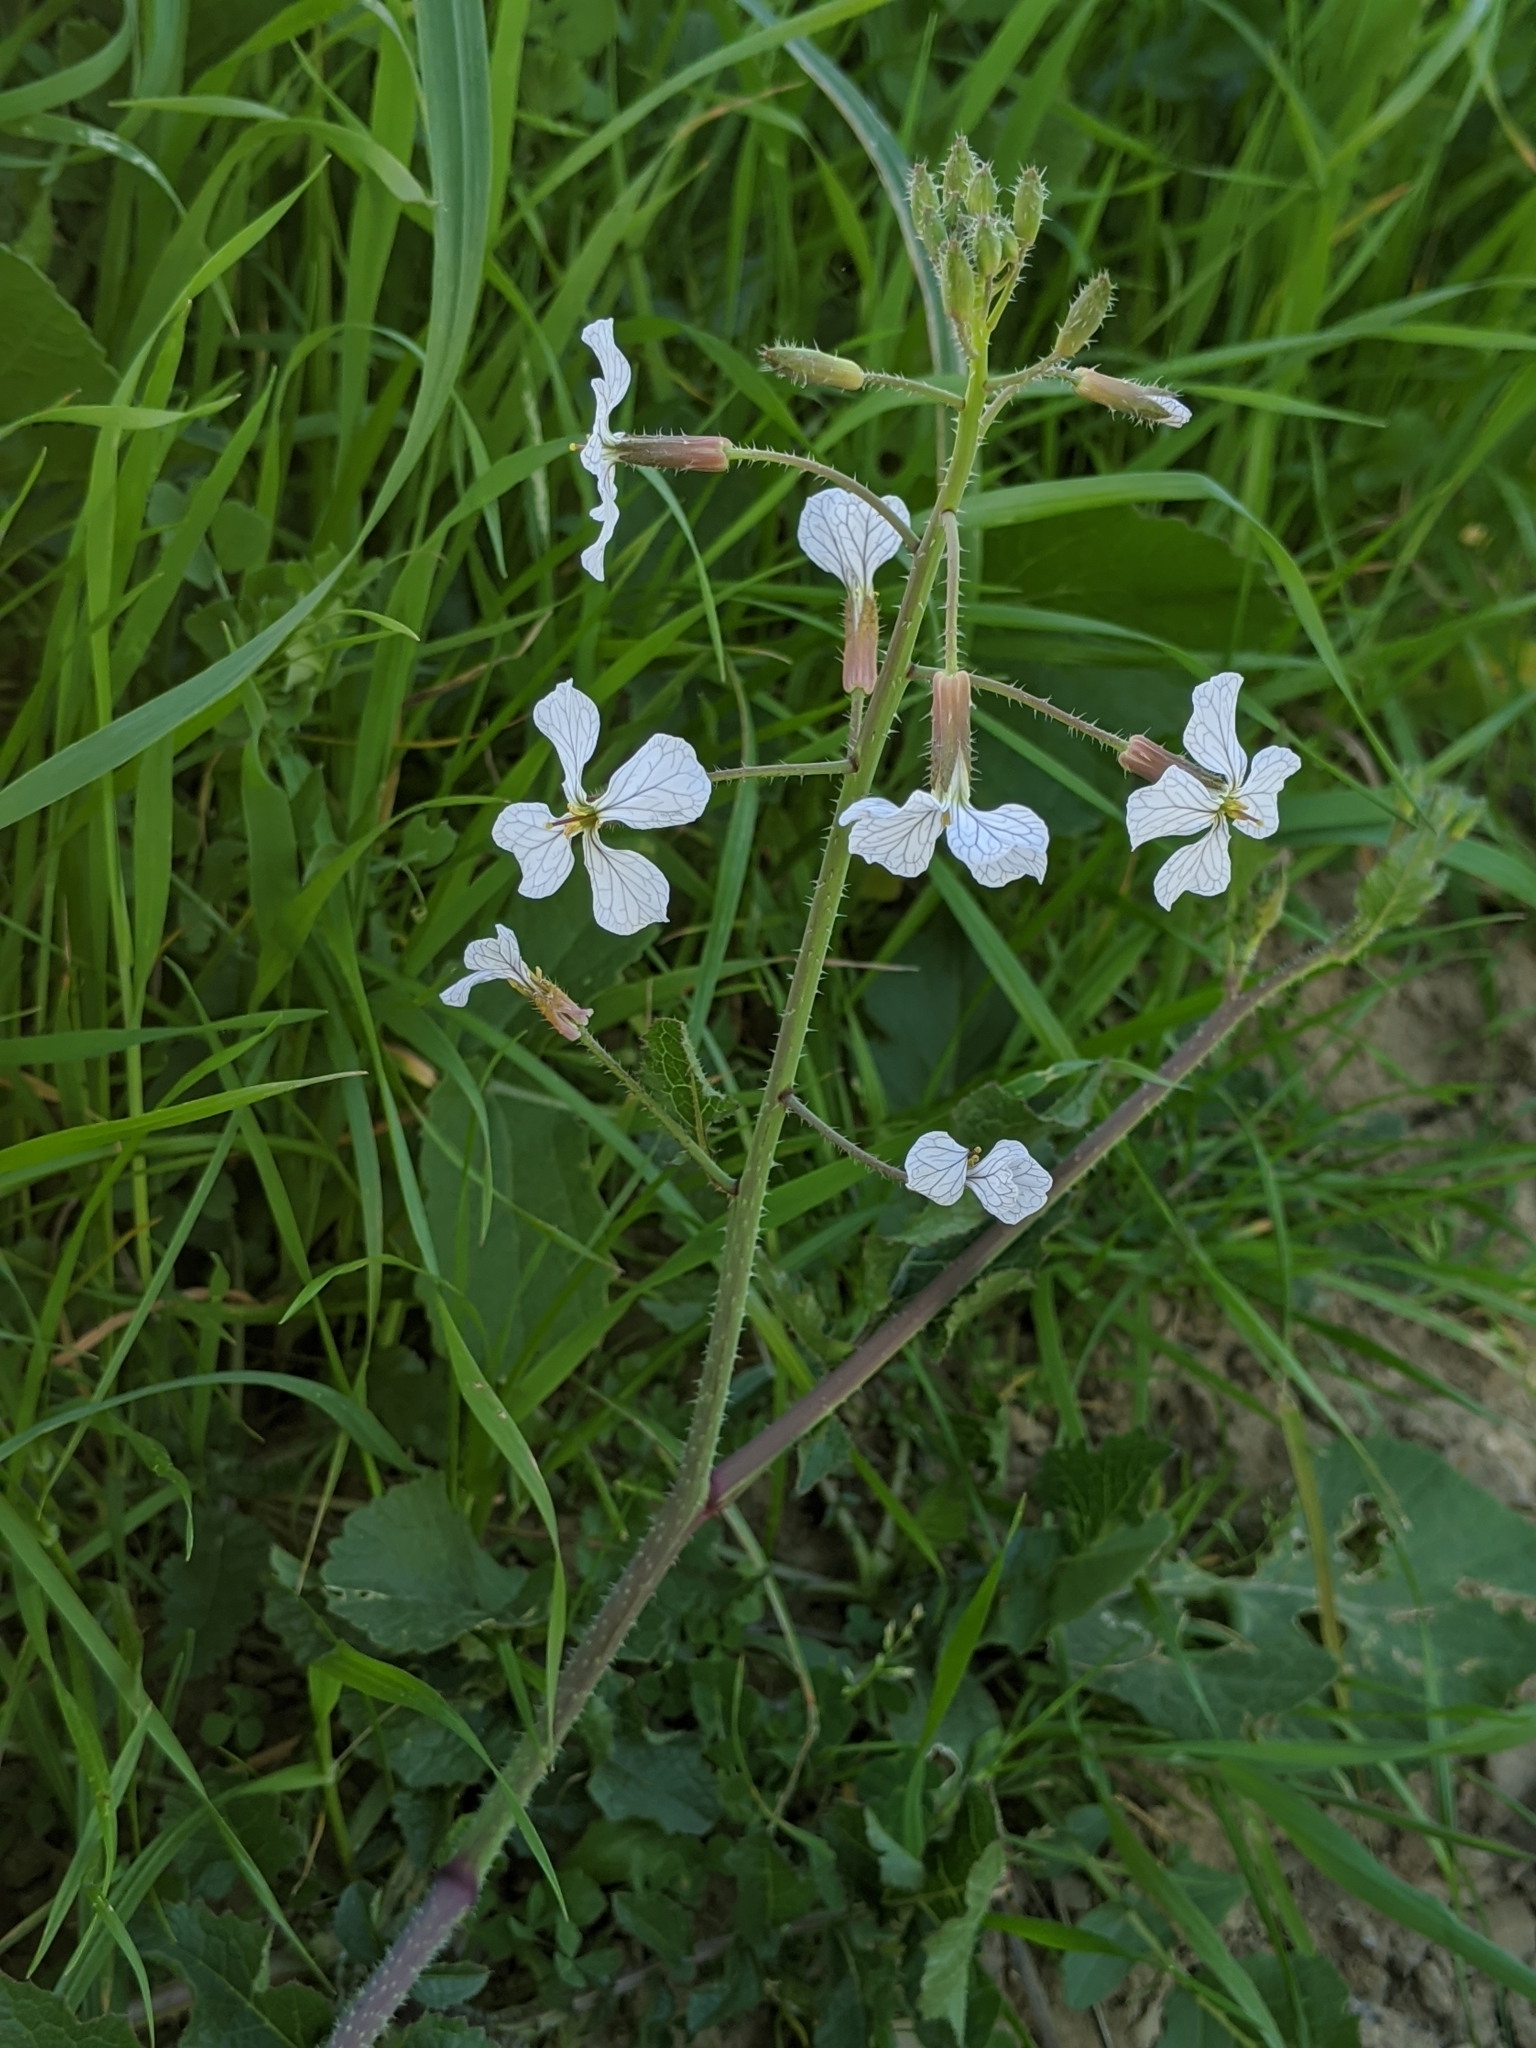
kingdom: Plantae
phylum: Tracheophyta
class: Magnoliopsida
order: Brassicales
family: Brassicaceae
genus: Raphanus
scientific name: Raphanus sativus
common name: Cultivated radish
